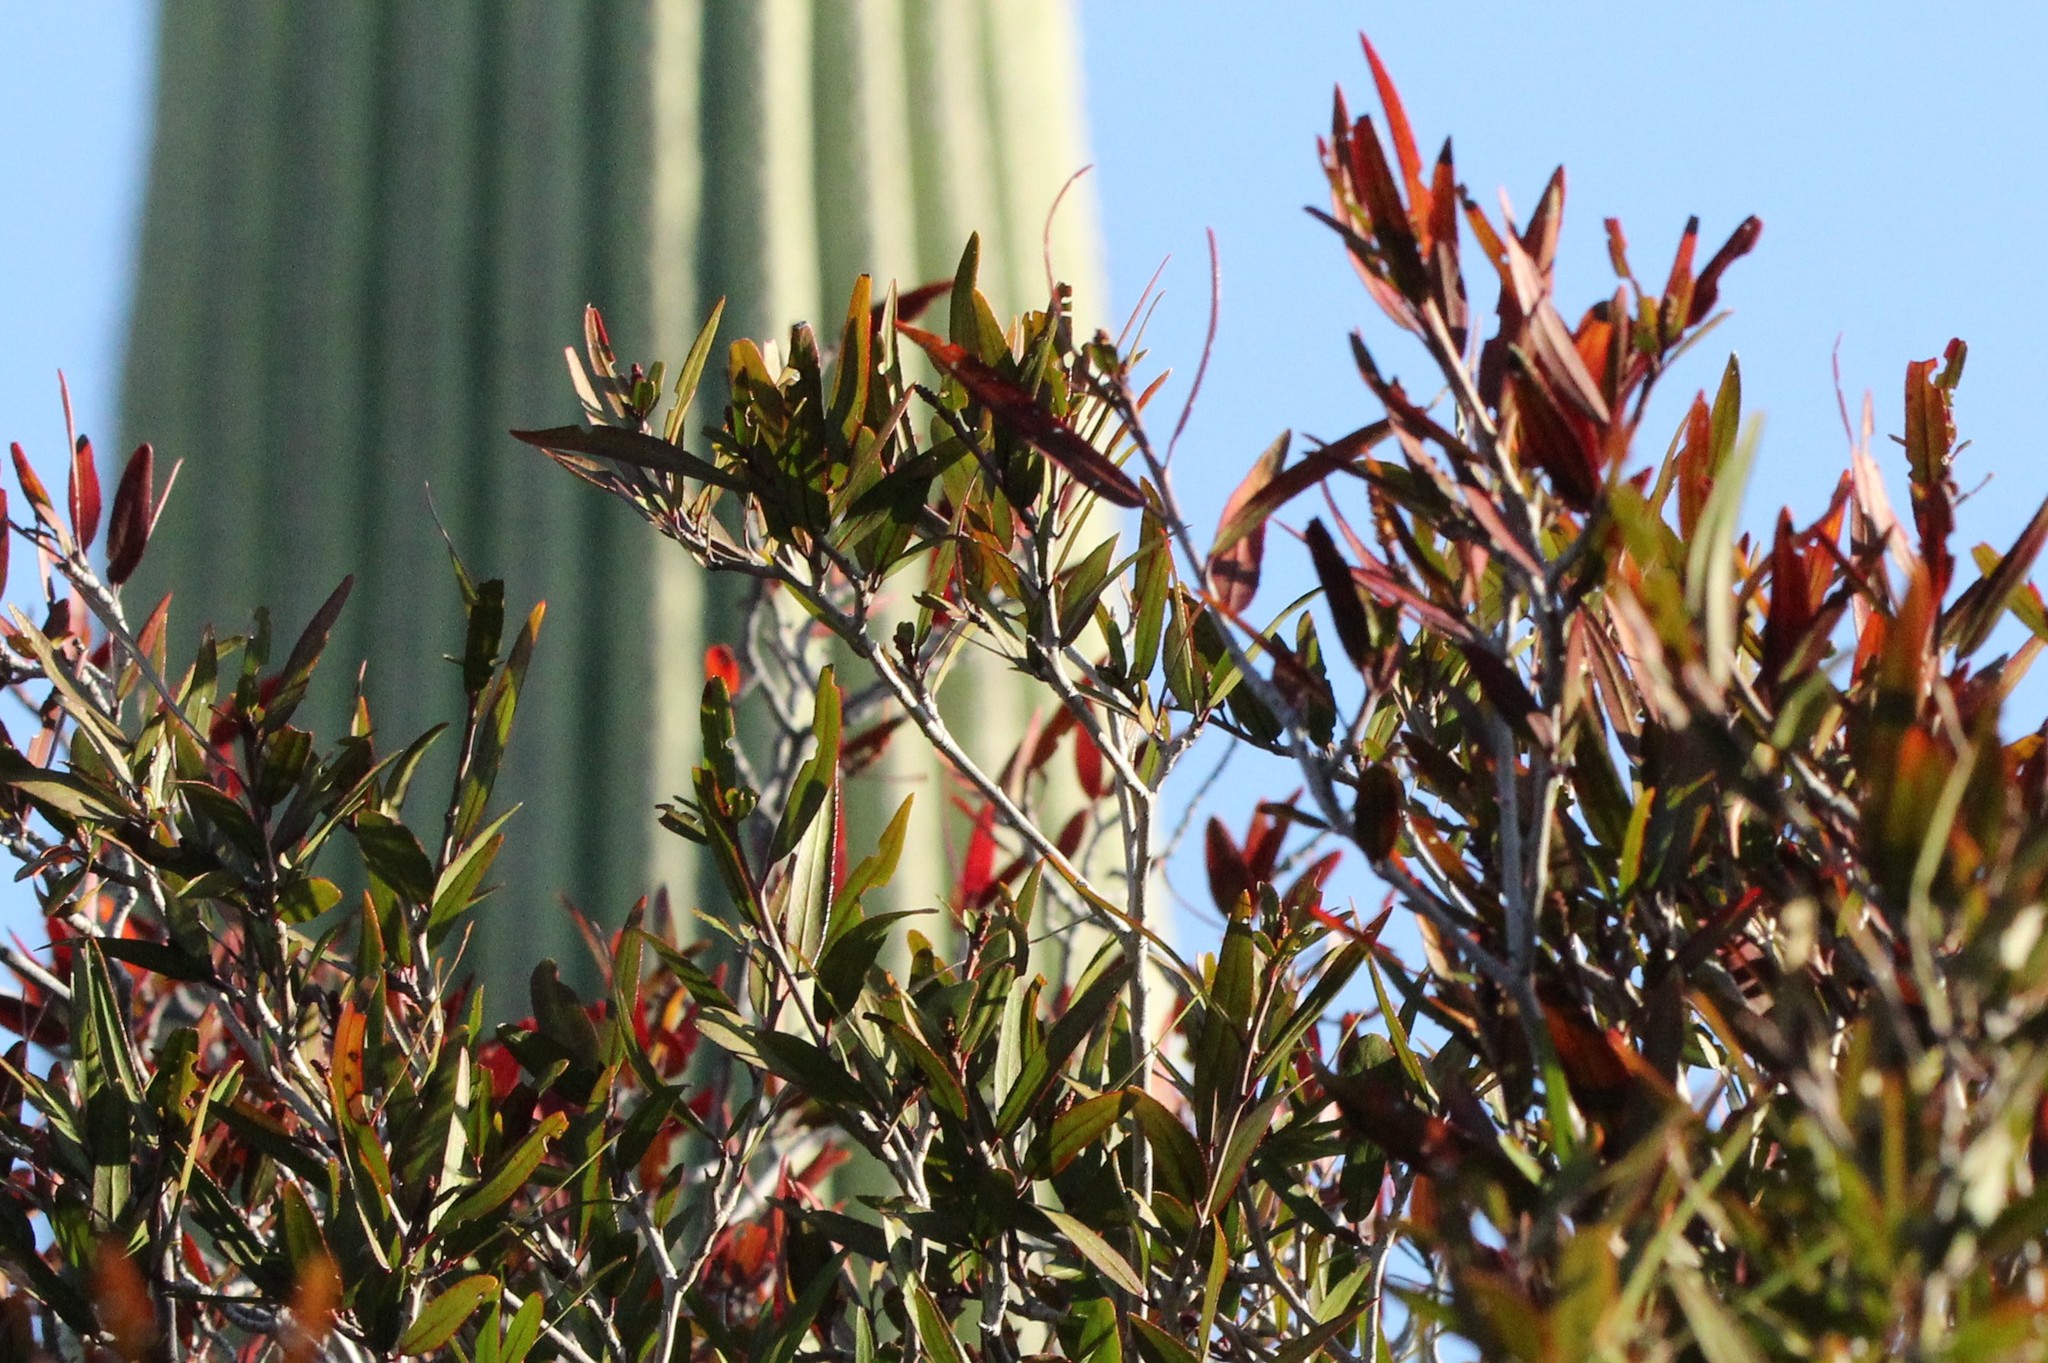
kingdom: Plantae
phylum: Tracheophyta
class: Magnoliopsida
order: Malpighiales
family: Euphorbiaceae
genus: Pleradenophora
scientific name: Pleradenophora bilocularis
